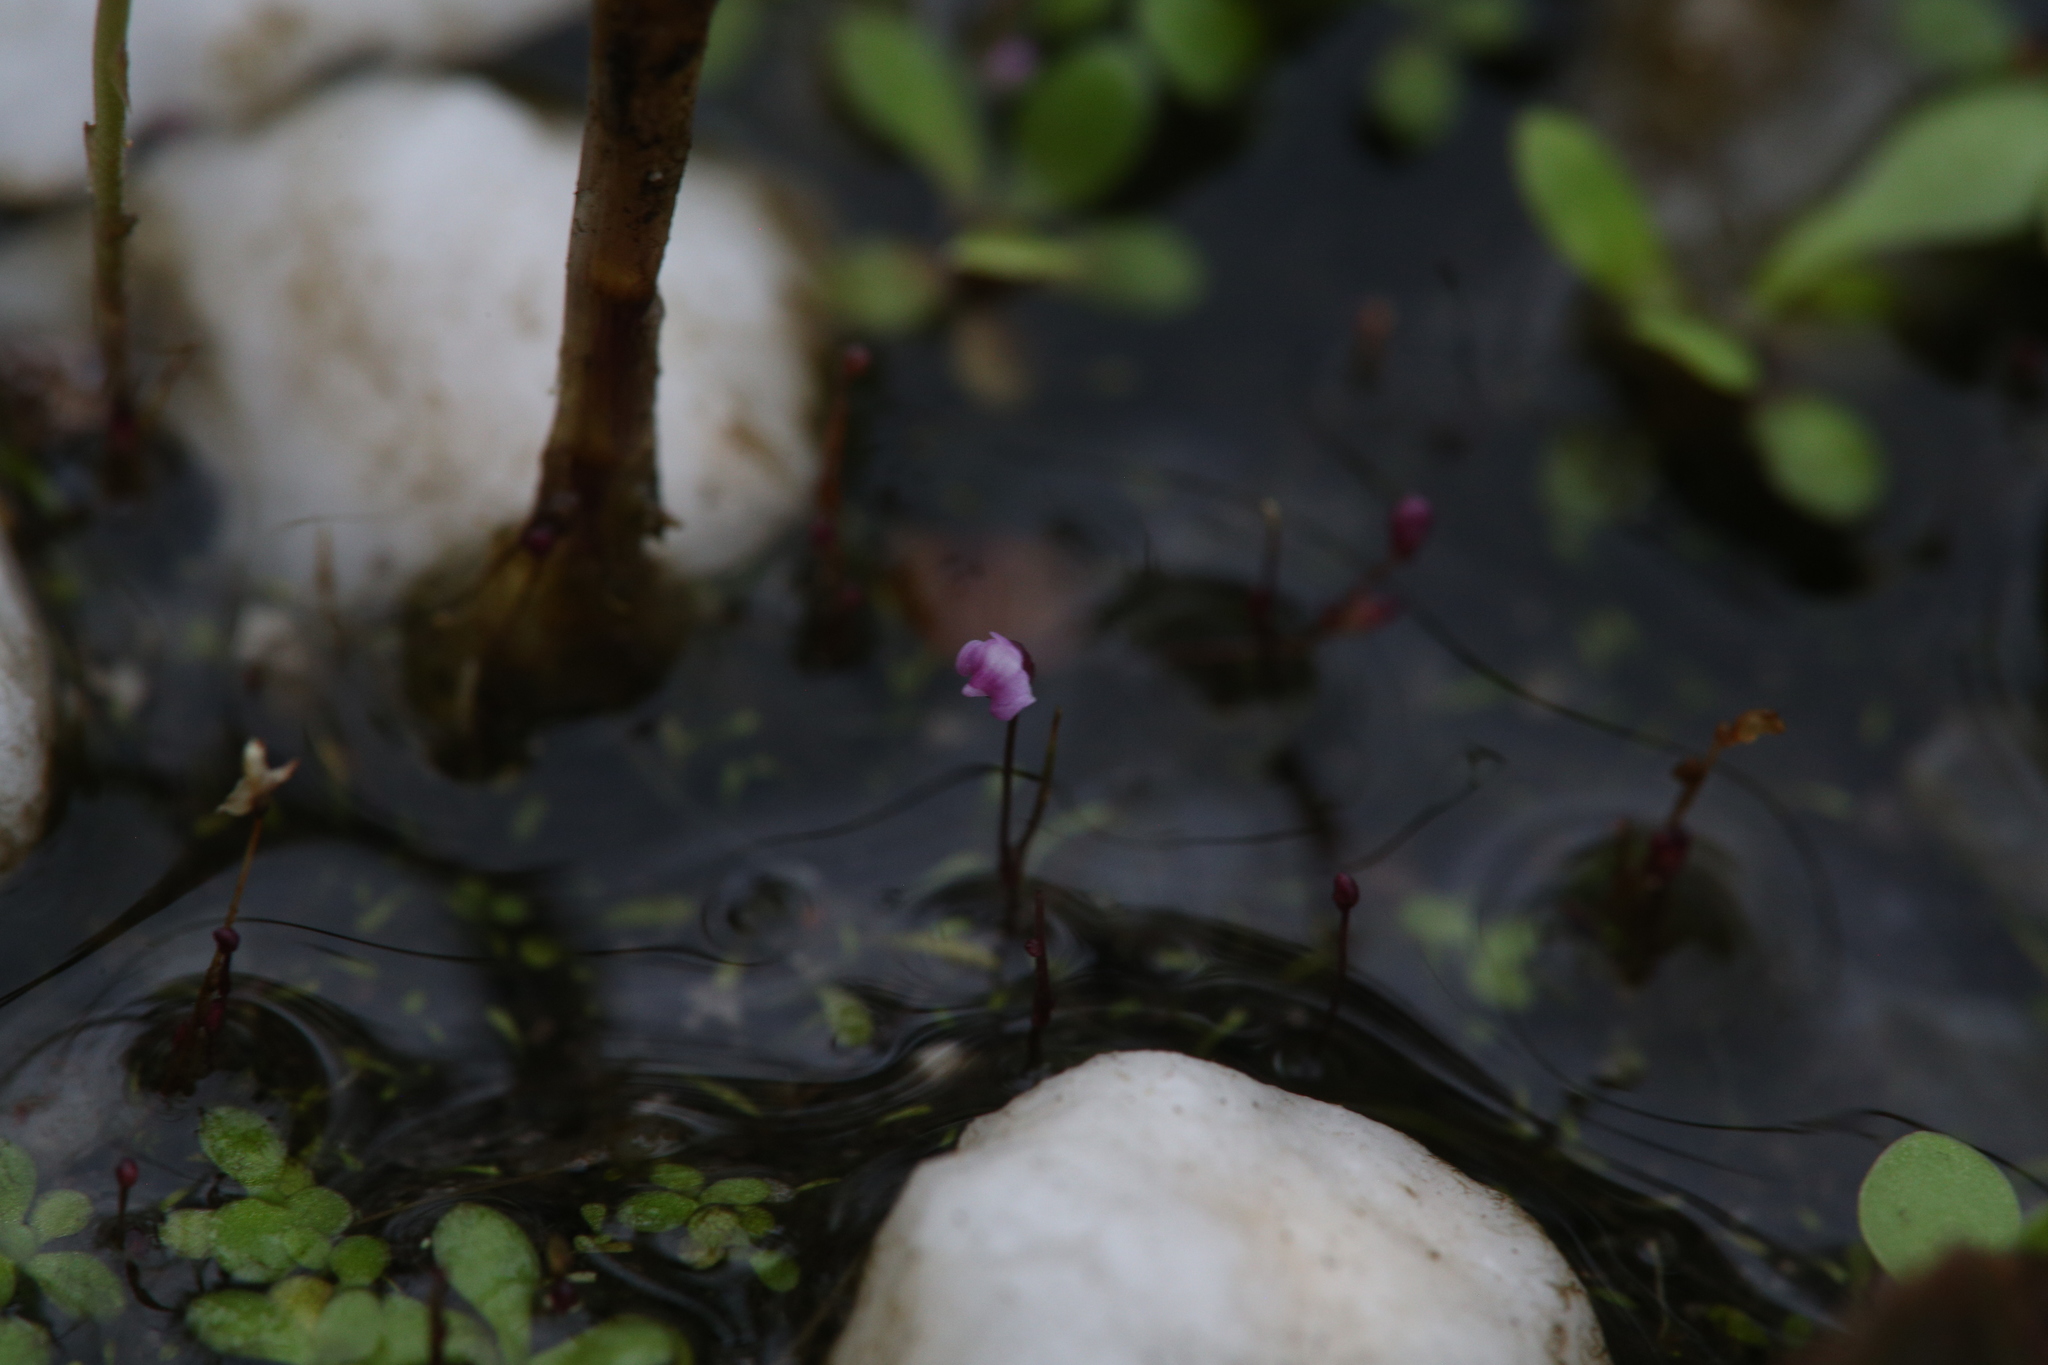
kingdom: Plantae
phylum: Tracheophyta
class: Magnoliopsida
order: Lamiales
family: Lentibulariaceae
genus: Utricularia
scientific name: Utricularia minutissima
